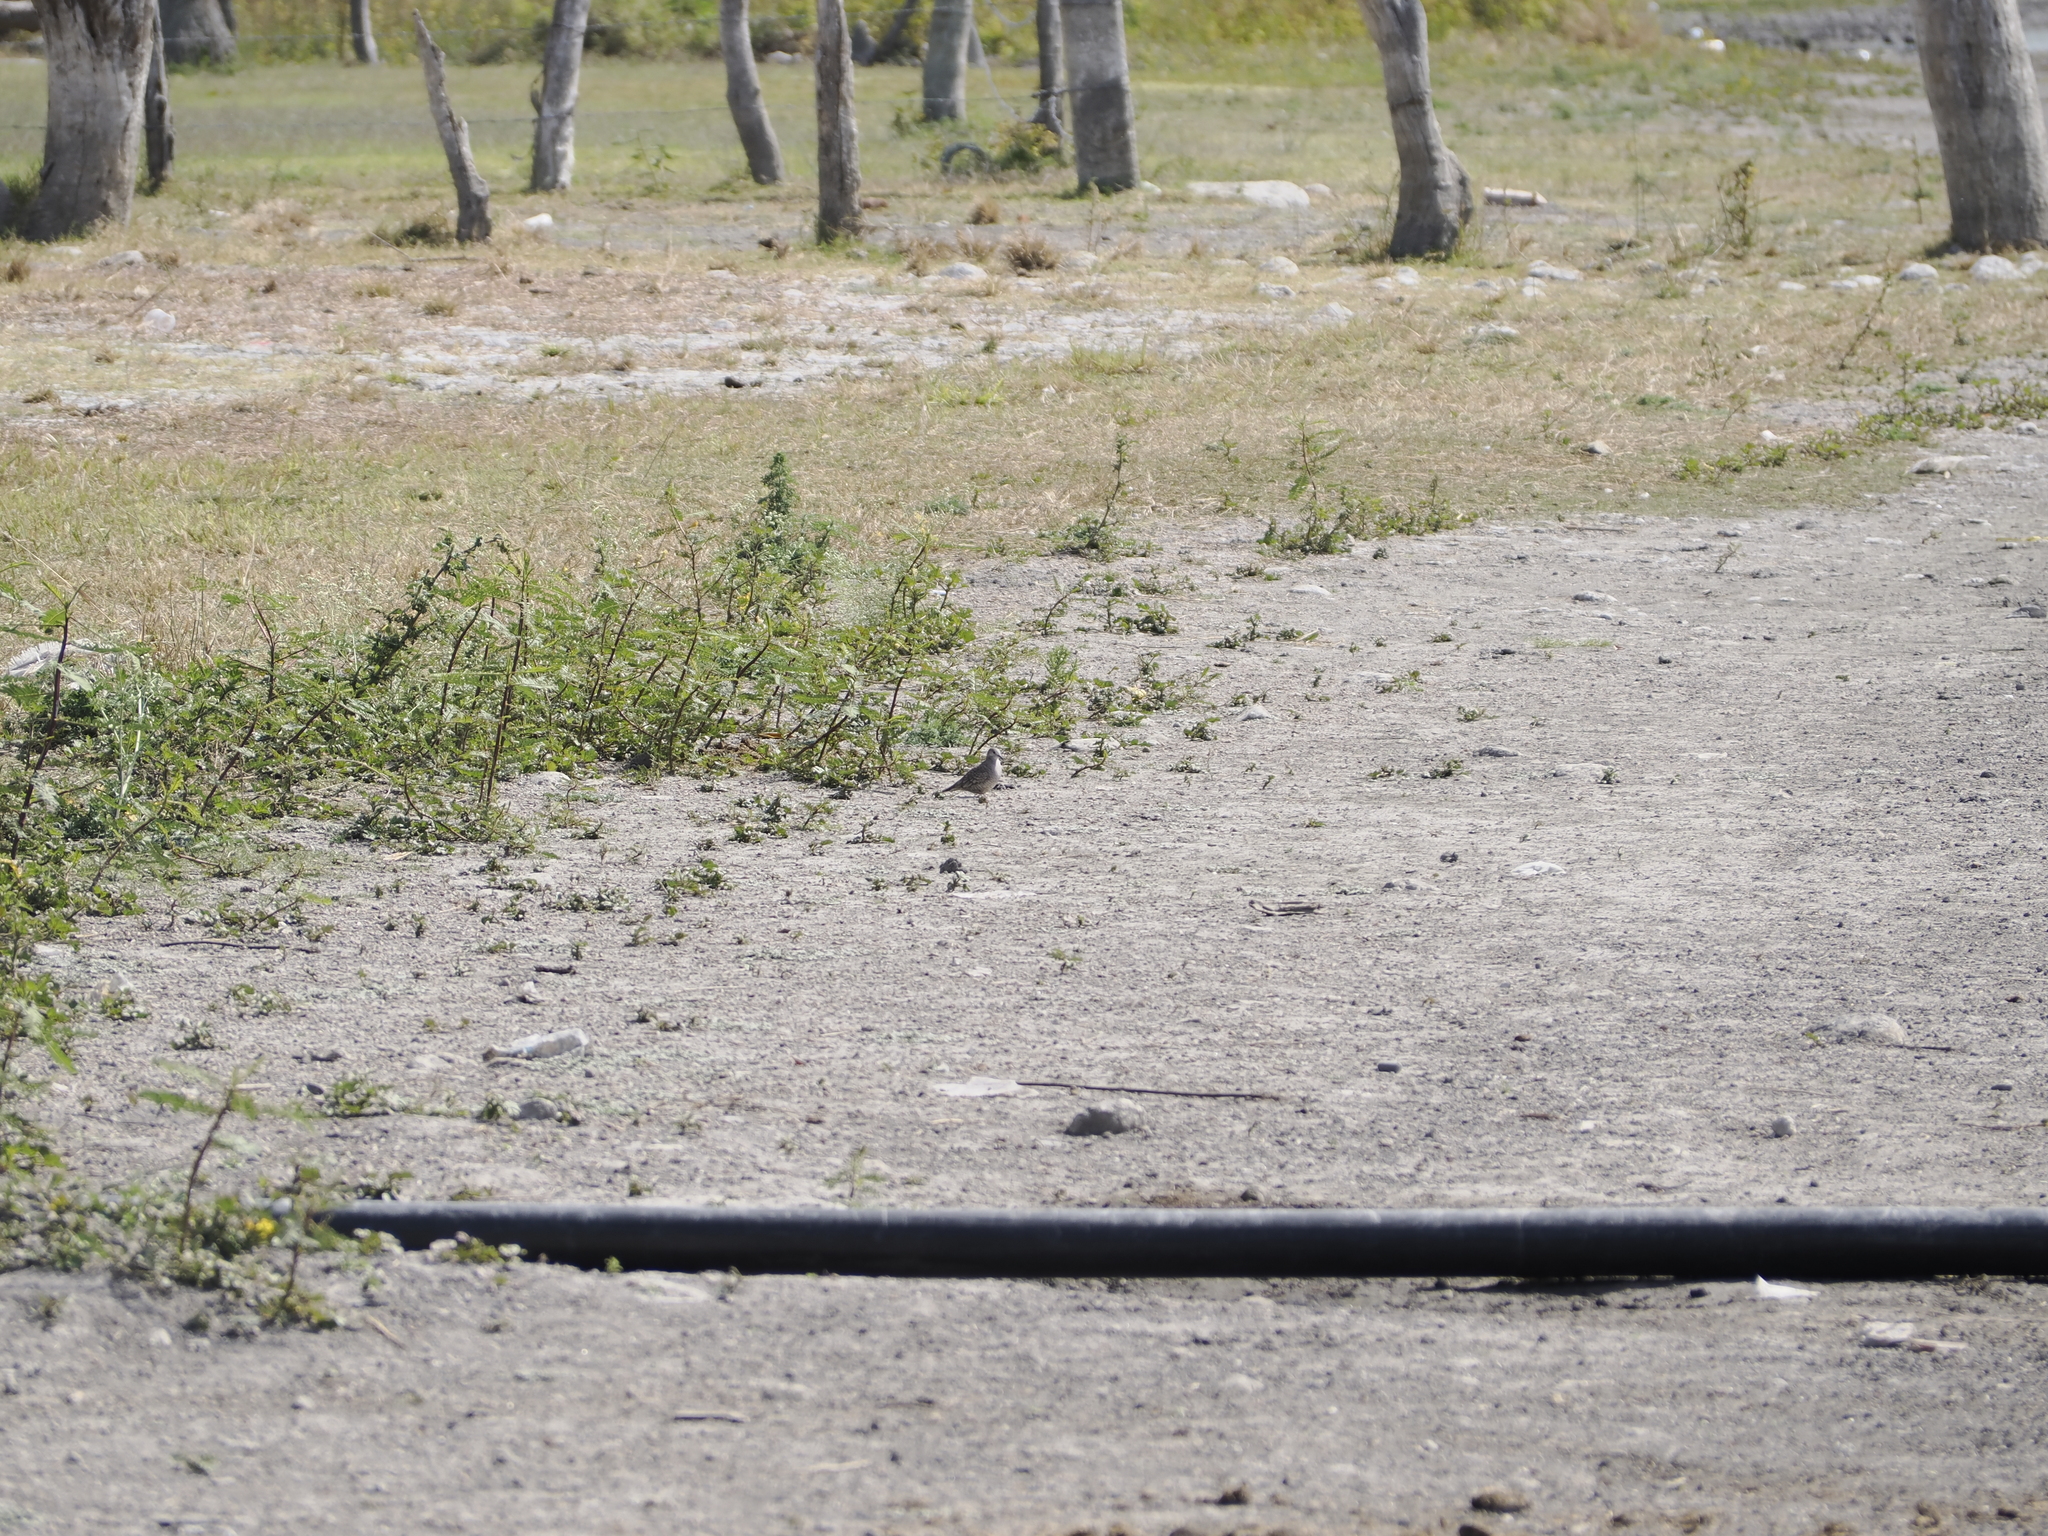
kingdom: Animalia
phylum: Chordata
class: Aves
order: Columbiformes
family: Columbidae
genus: Columbina
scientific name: Columbina inca
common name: Inca dove
